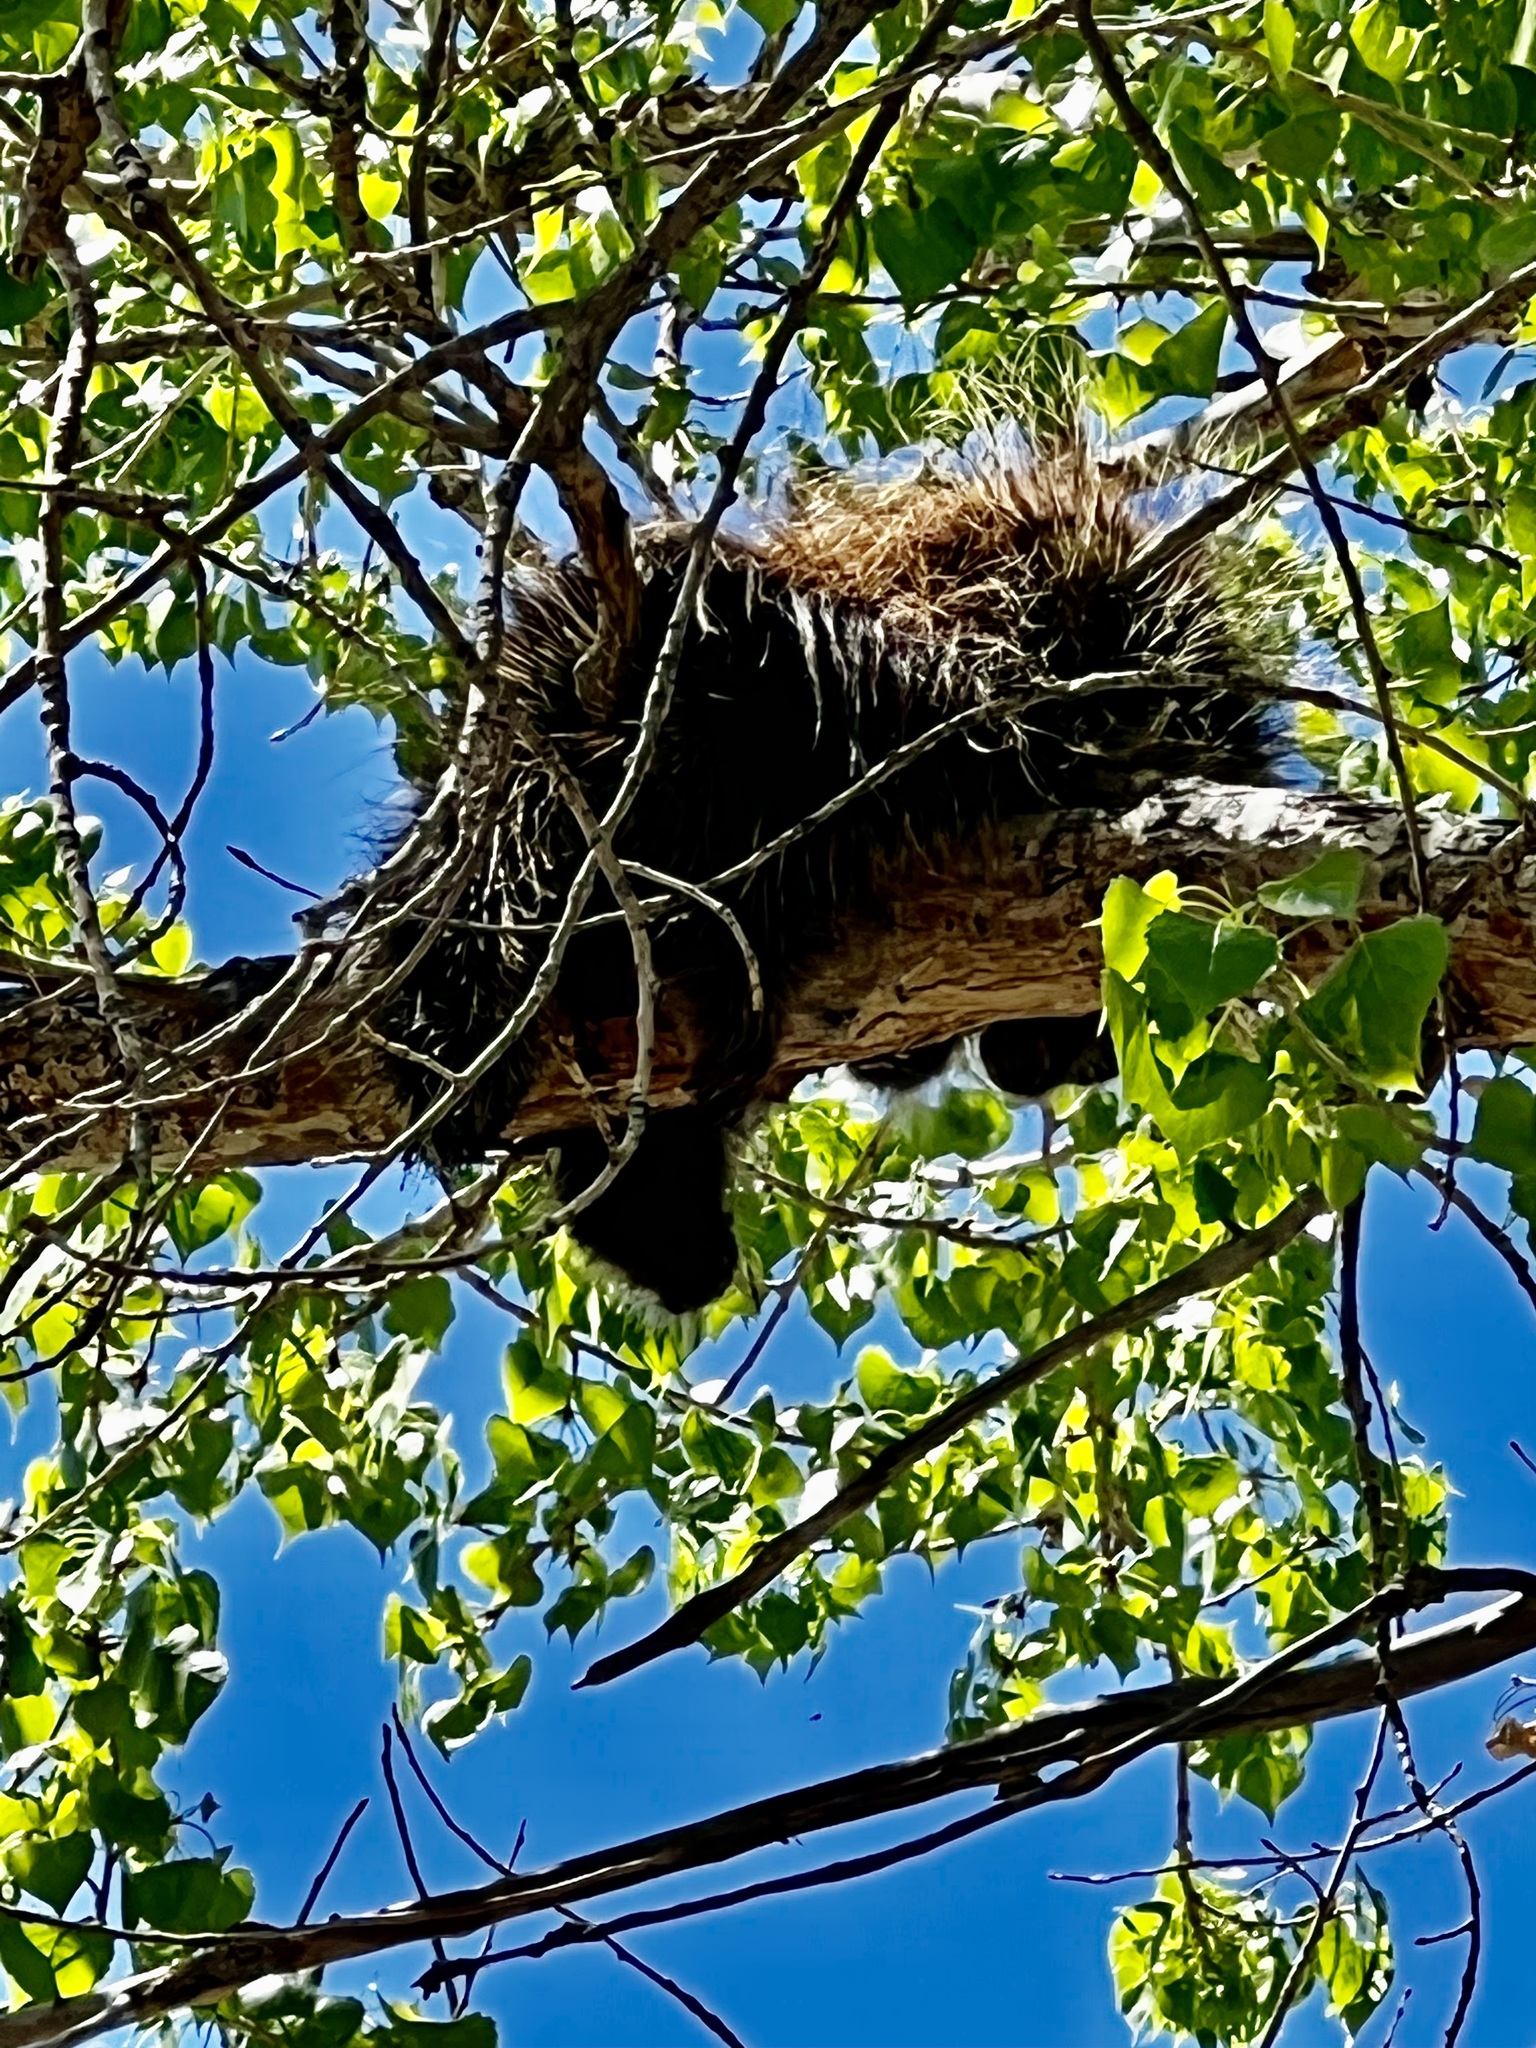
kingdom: Animalia
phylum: Chordata
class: Mammalia
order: Rodentia
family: Erethizontidae
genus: Erethizon
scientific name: Erethizon dorsatus
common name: North american porcupine
